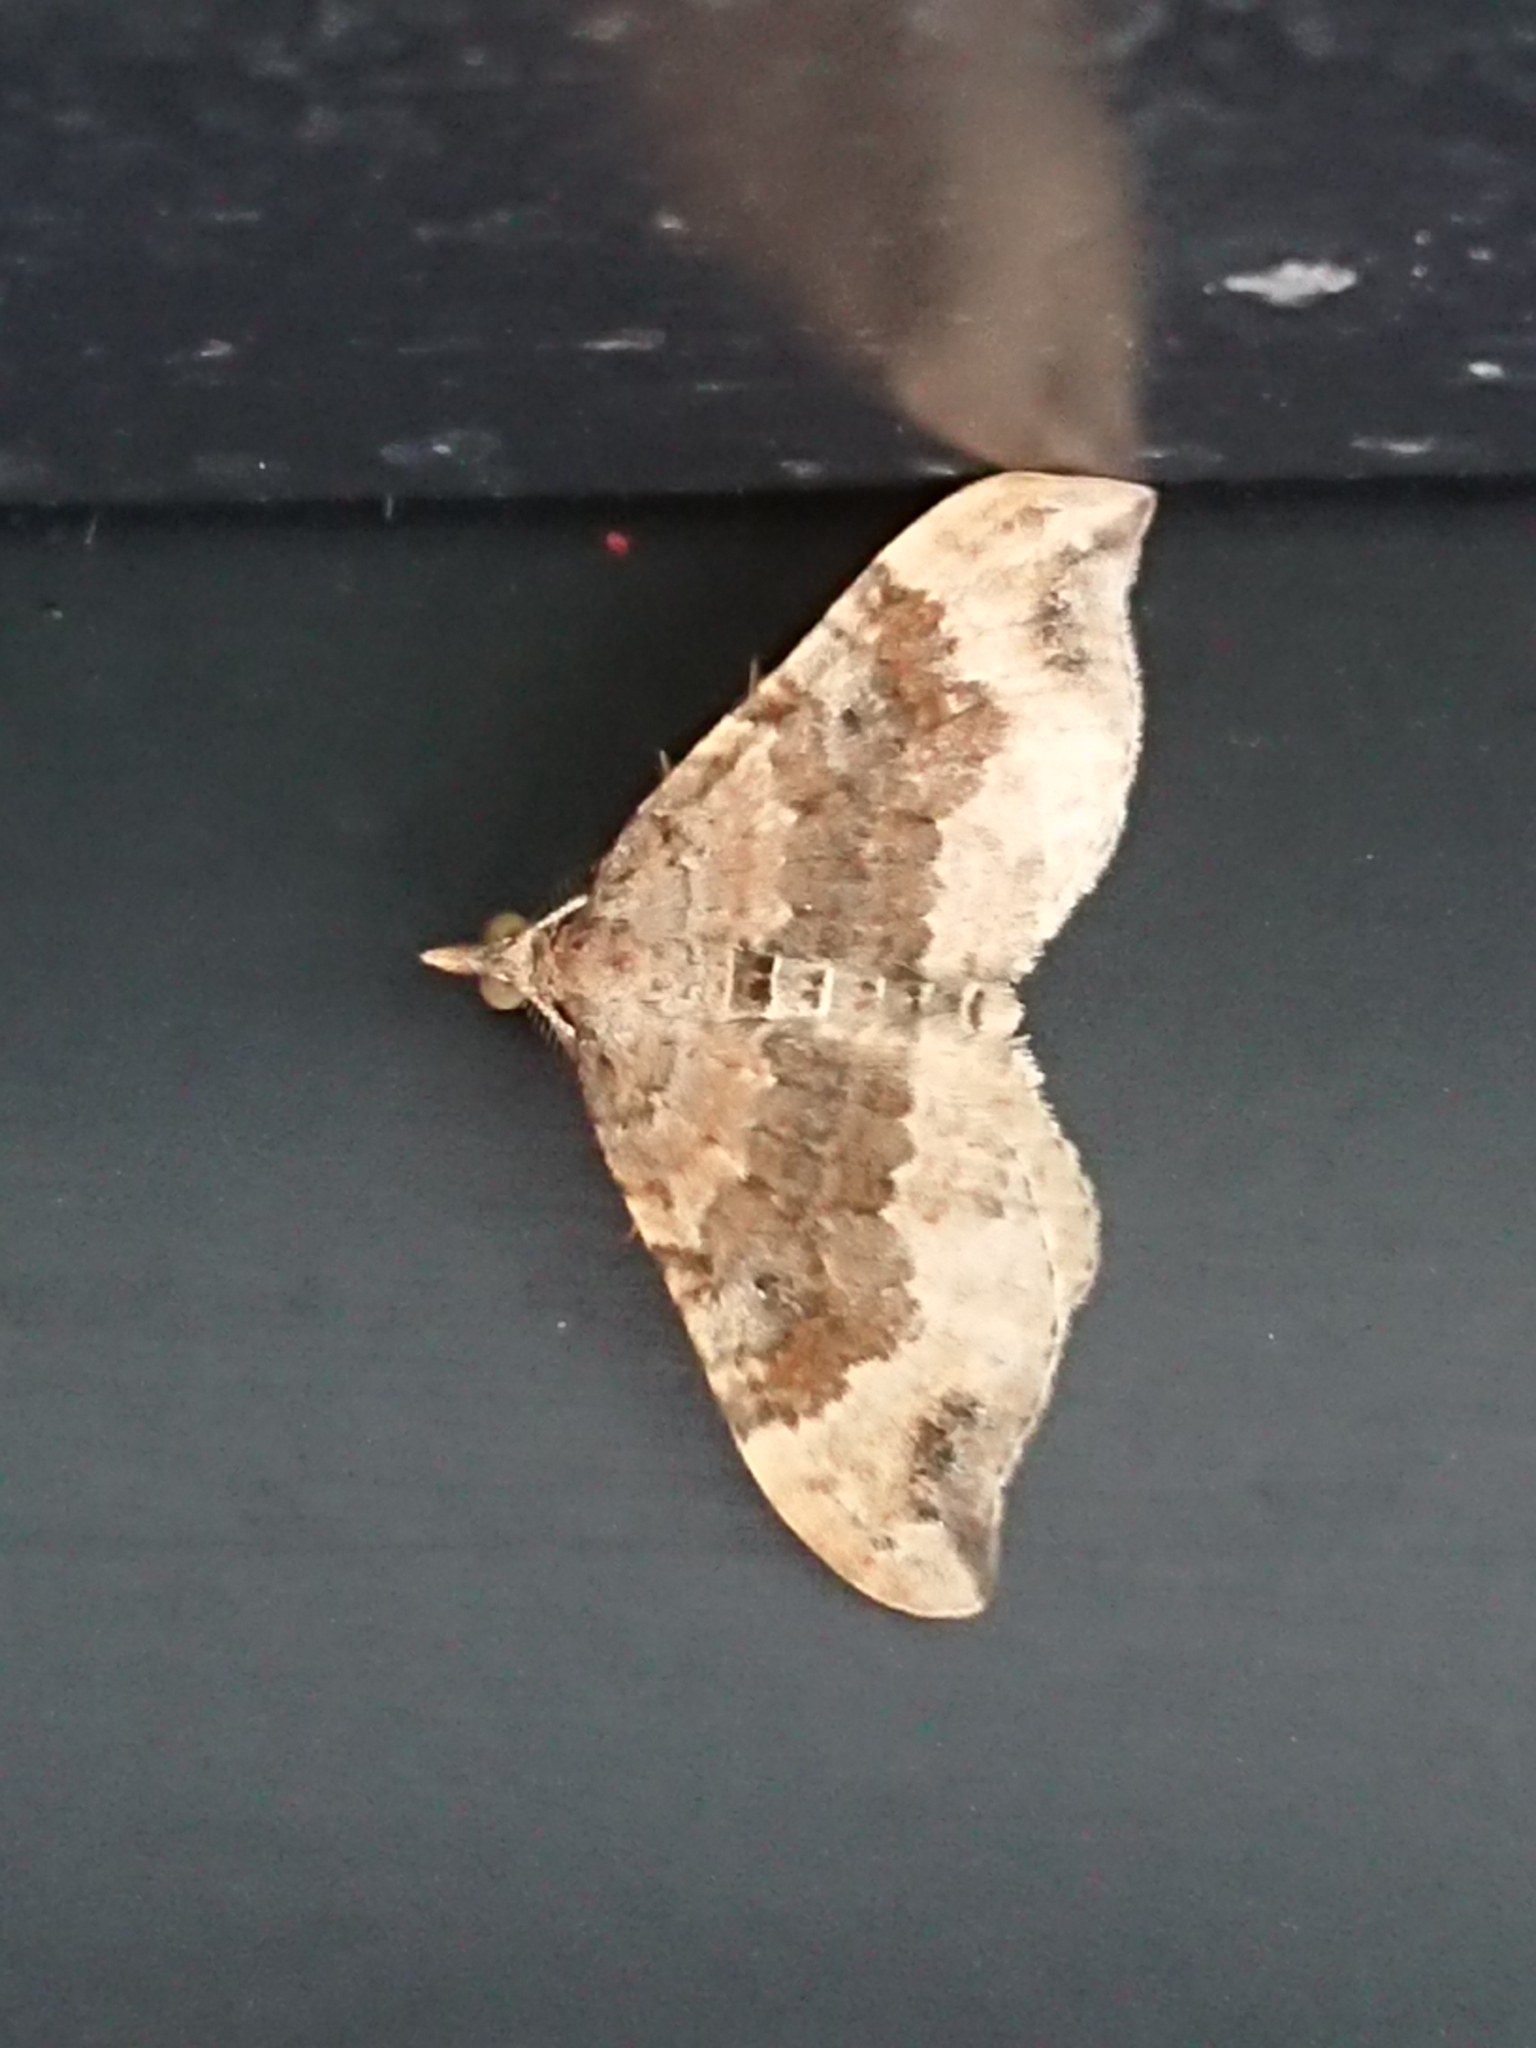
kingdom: Animalia
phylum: Arthropoda
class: Insecta
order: Lepidoptera
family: Geometridae
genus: Homodotis
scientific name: Homodotis megaspilata
